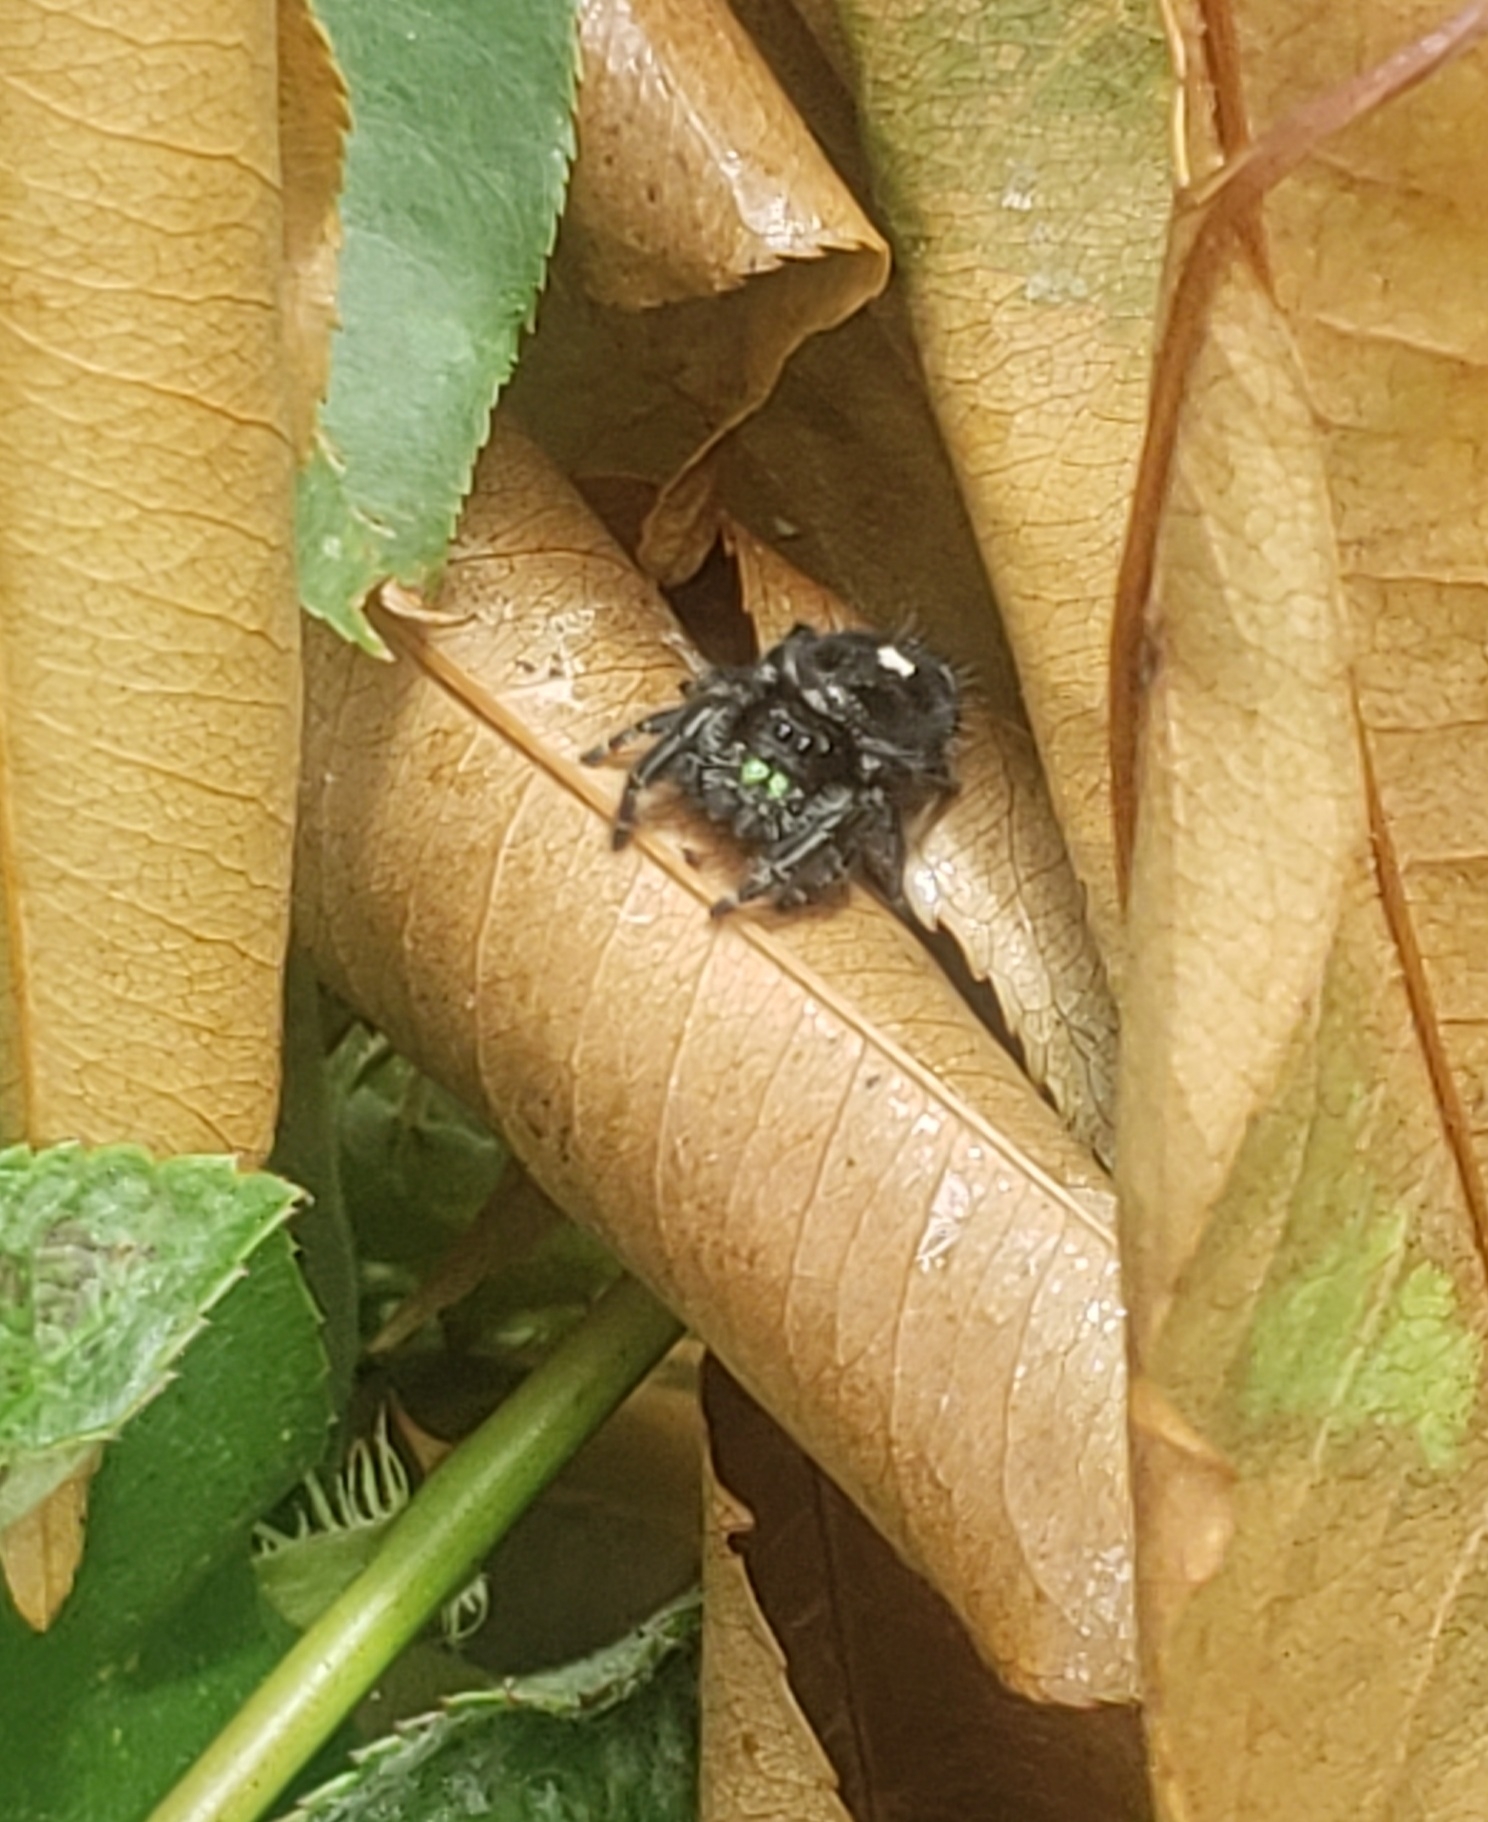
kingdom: Animalia
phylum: Arthropoda
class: Arachnida
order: Araneae
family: Salticidae
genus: Phidippus
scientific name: Phidippus audax
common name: Bold jumper
